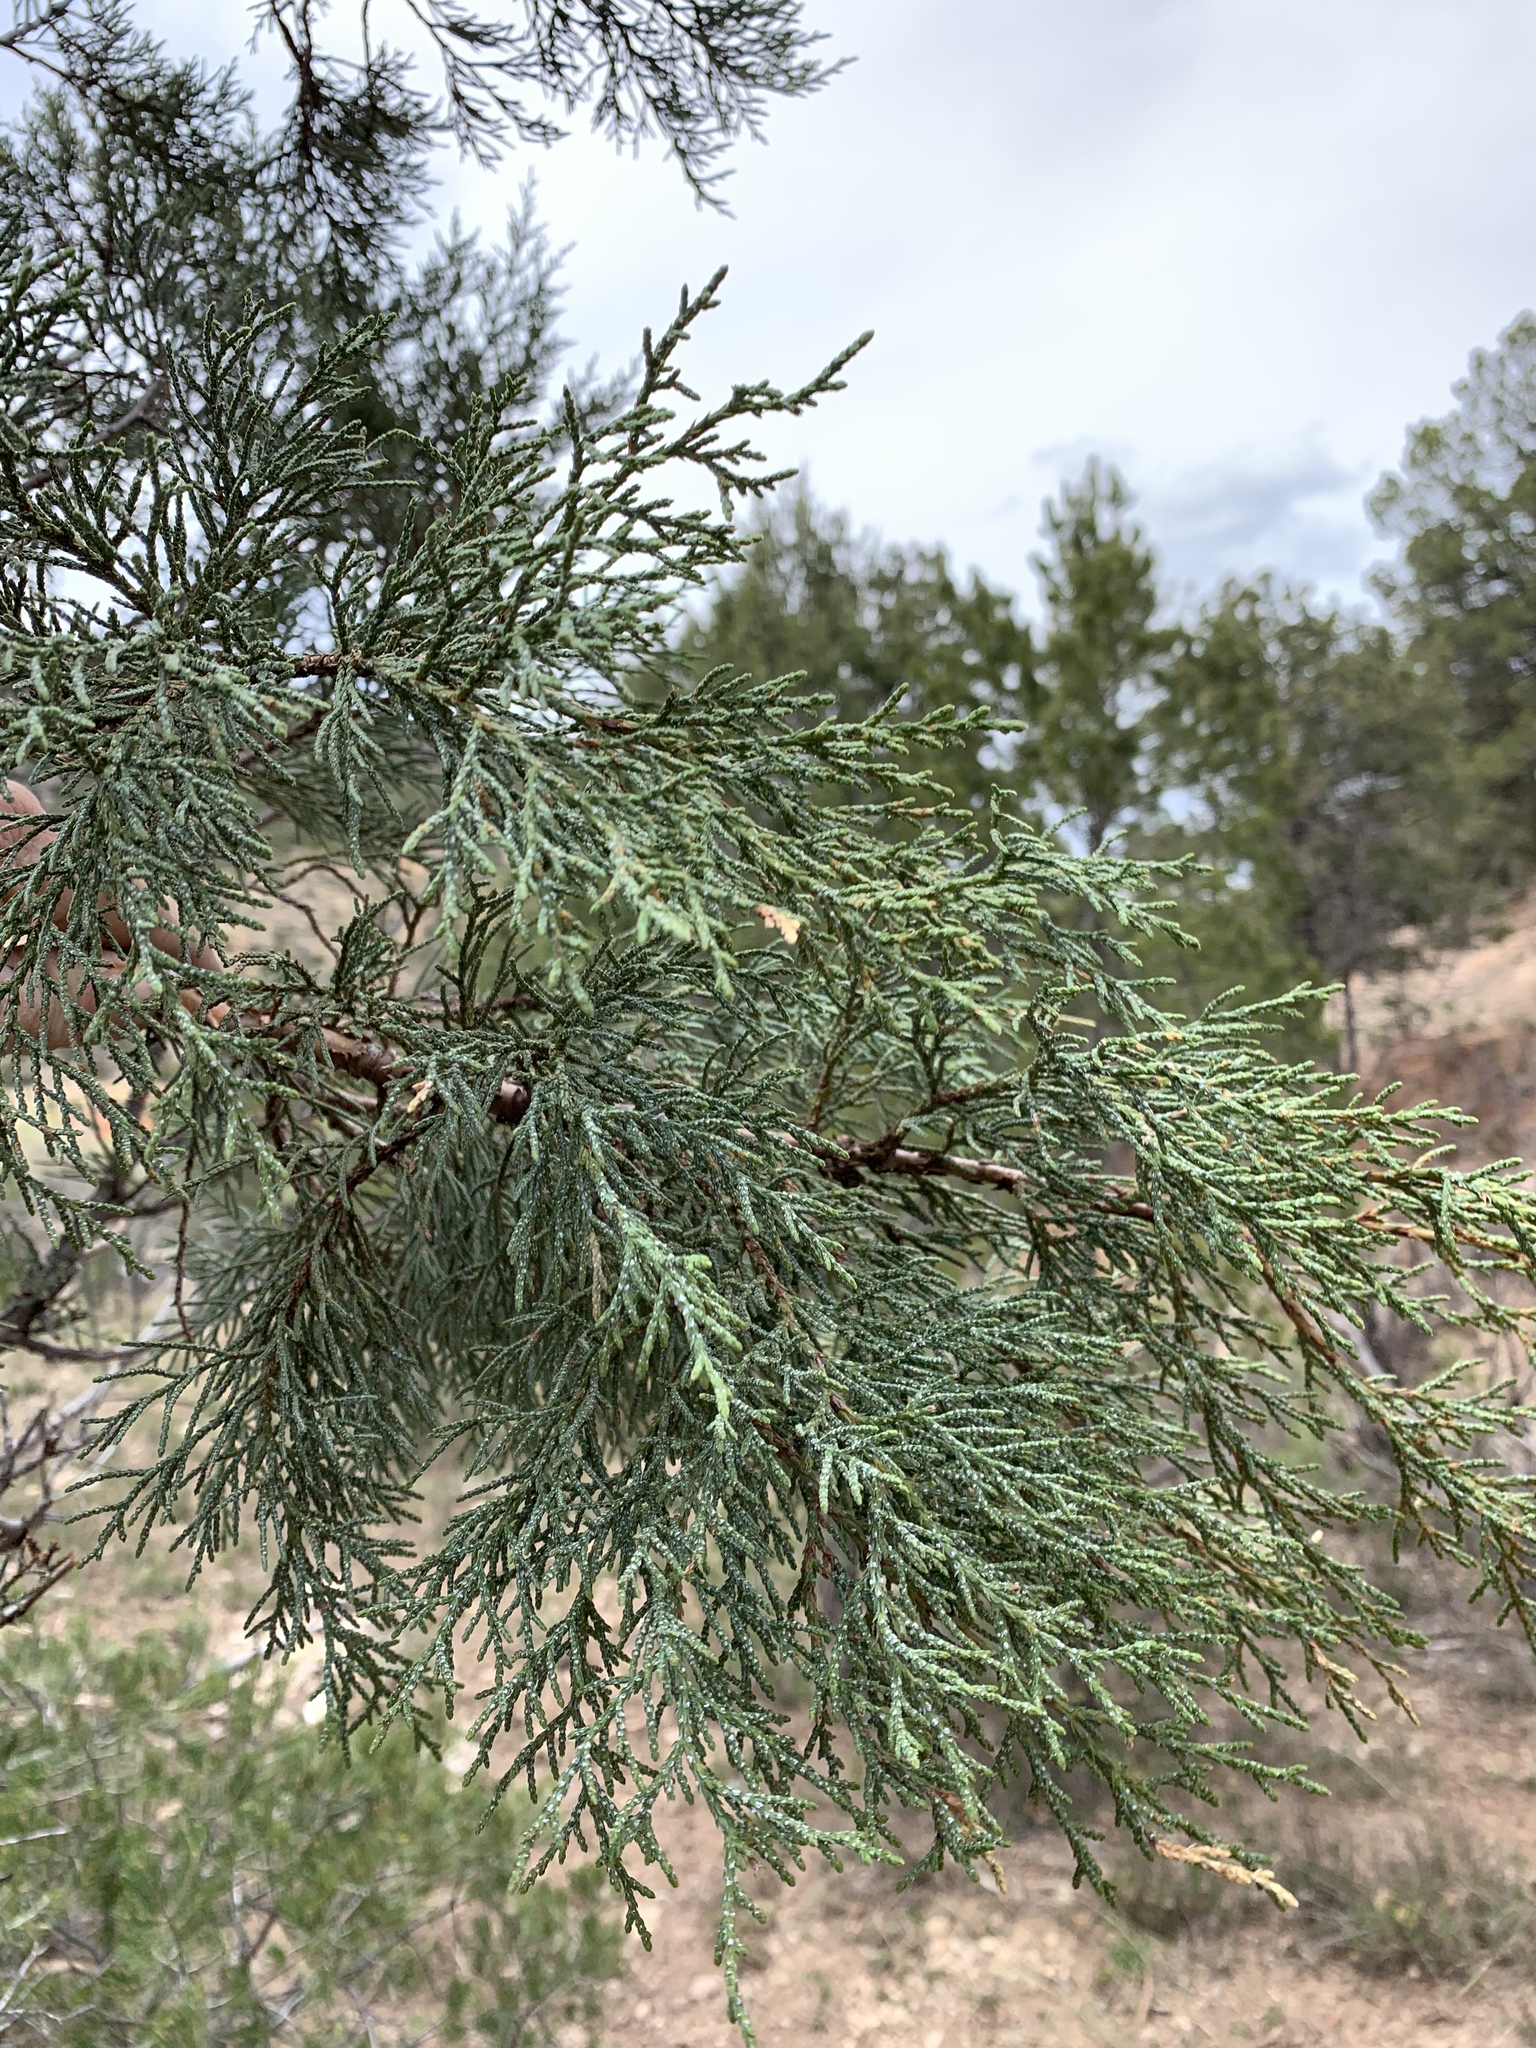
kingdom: Plantae
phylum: Tracheophyta
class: Pinopsida
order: Pinales
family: Cupressaceae
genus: Juniperus
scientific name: Juniperus deppeana
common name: Alligator juniper
